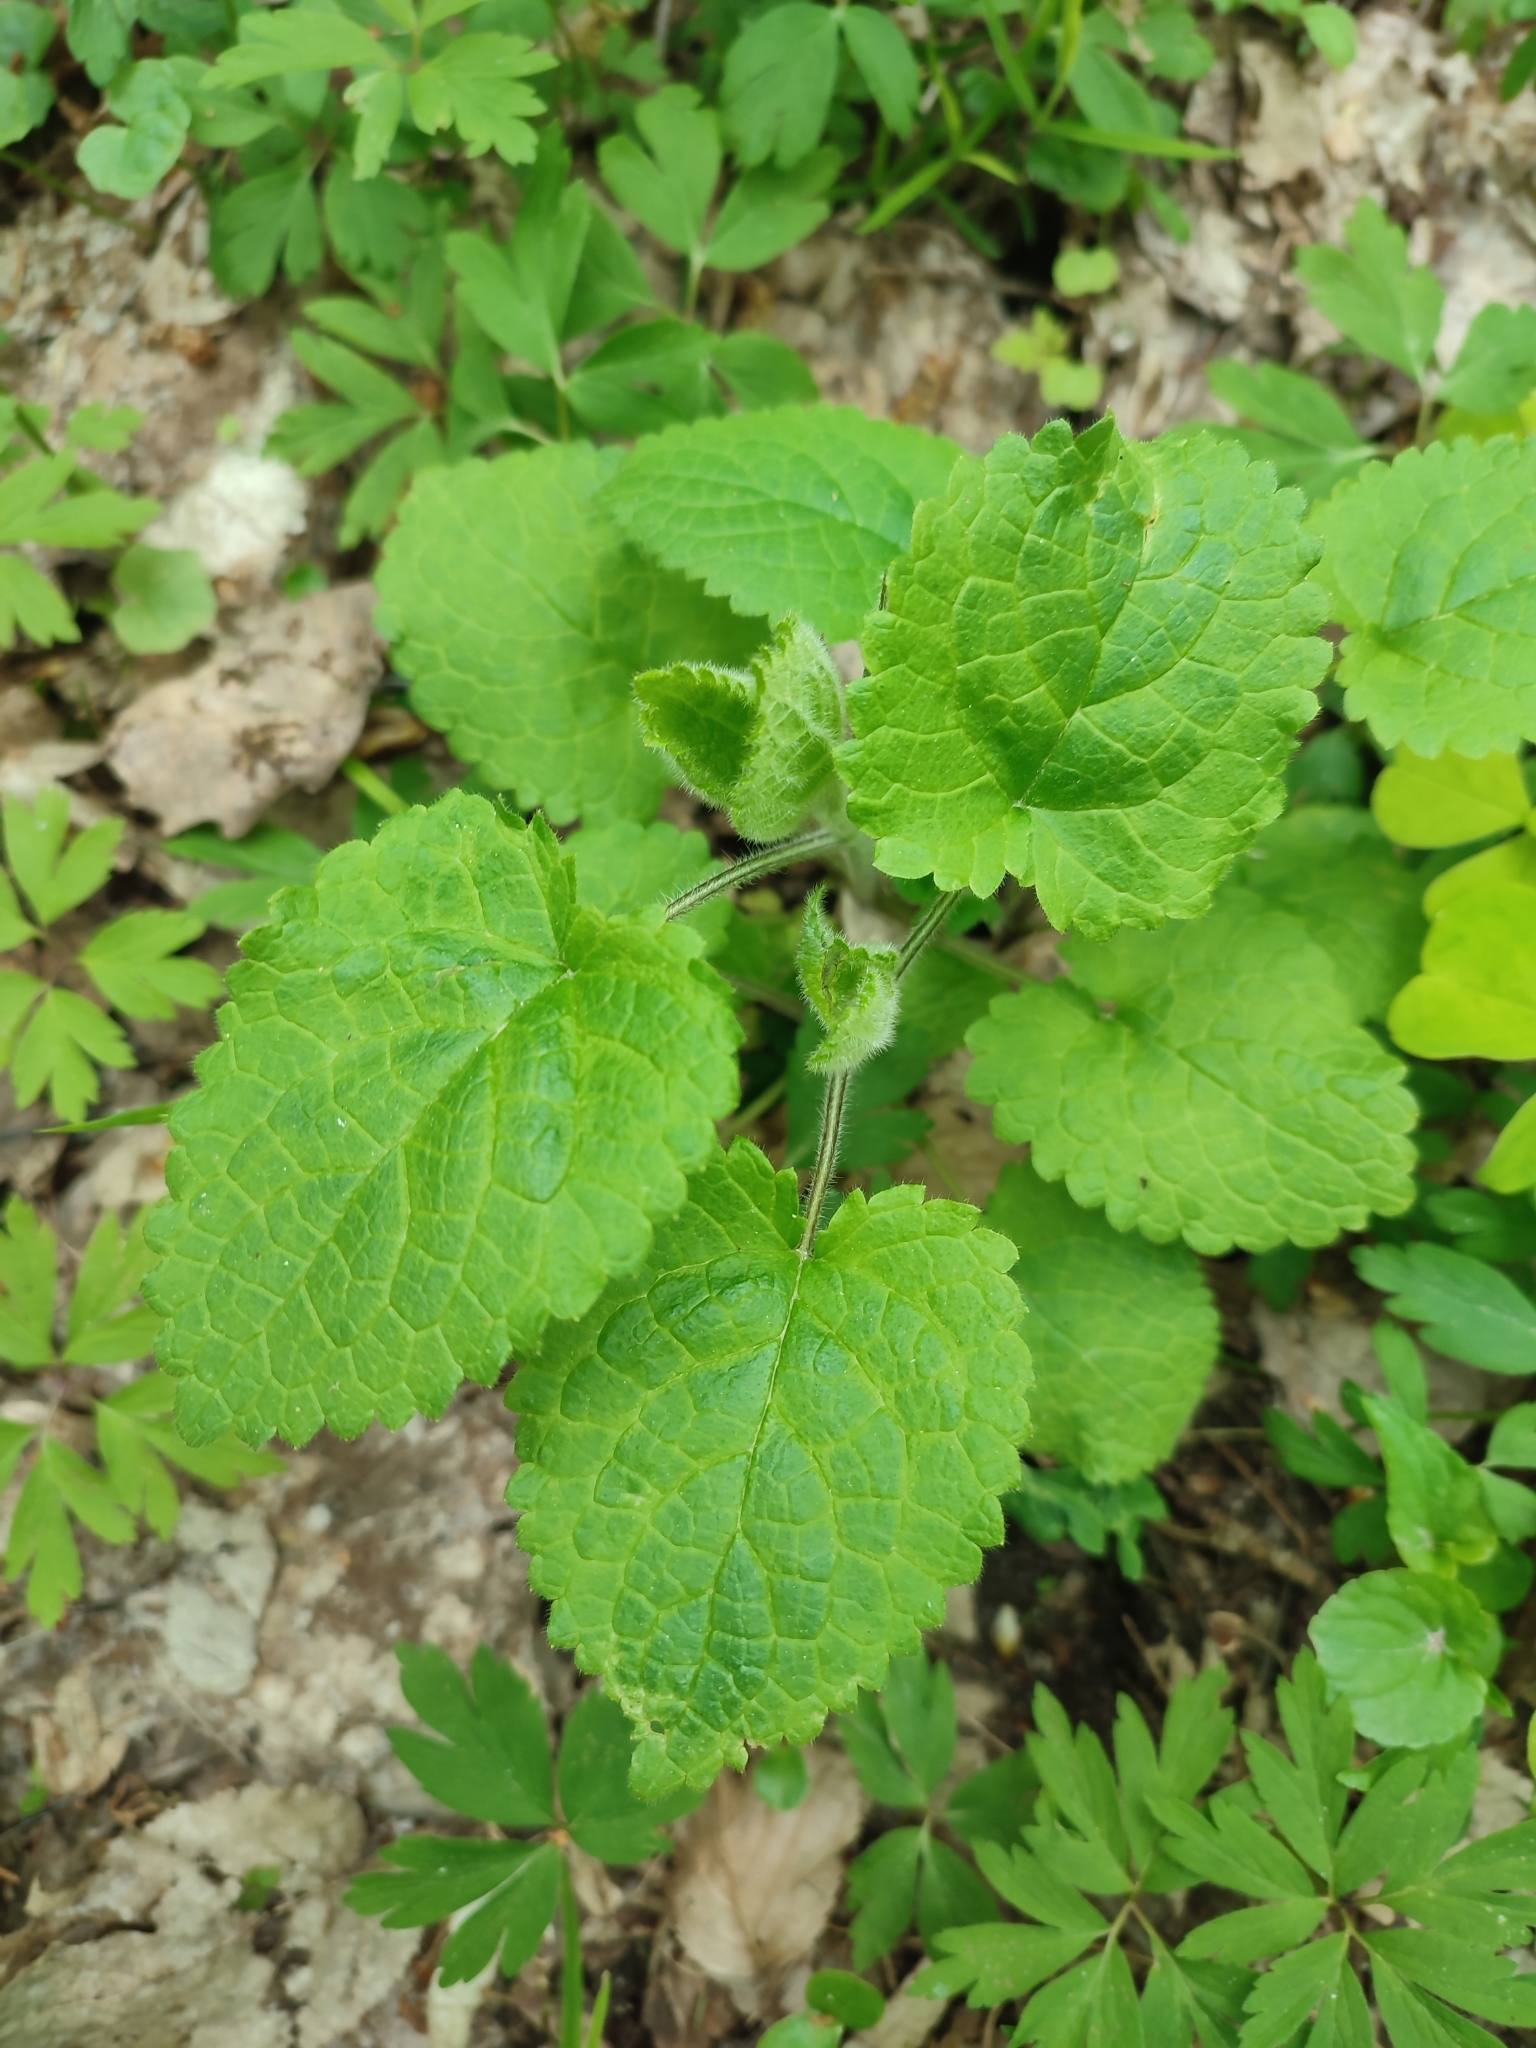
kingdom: Plantae
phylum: Tracheophyta
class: Magnoliopsida
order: Lamiales
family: Lamiaceae
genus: Stachys
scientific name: Stachys sylvatica
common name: Hedge woundwort
